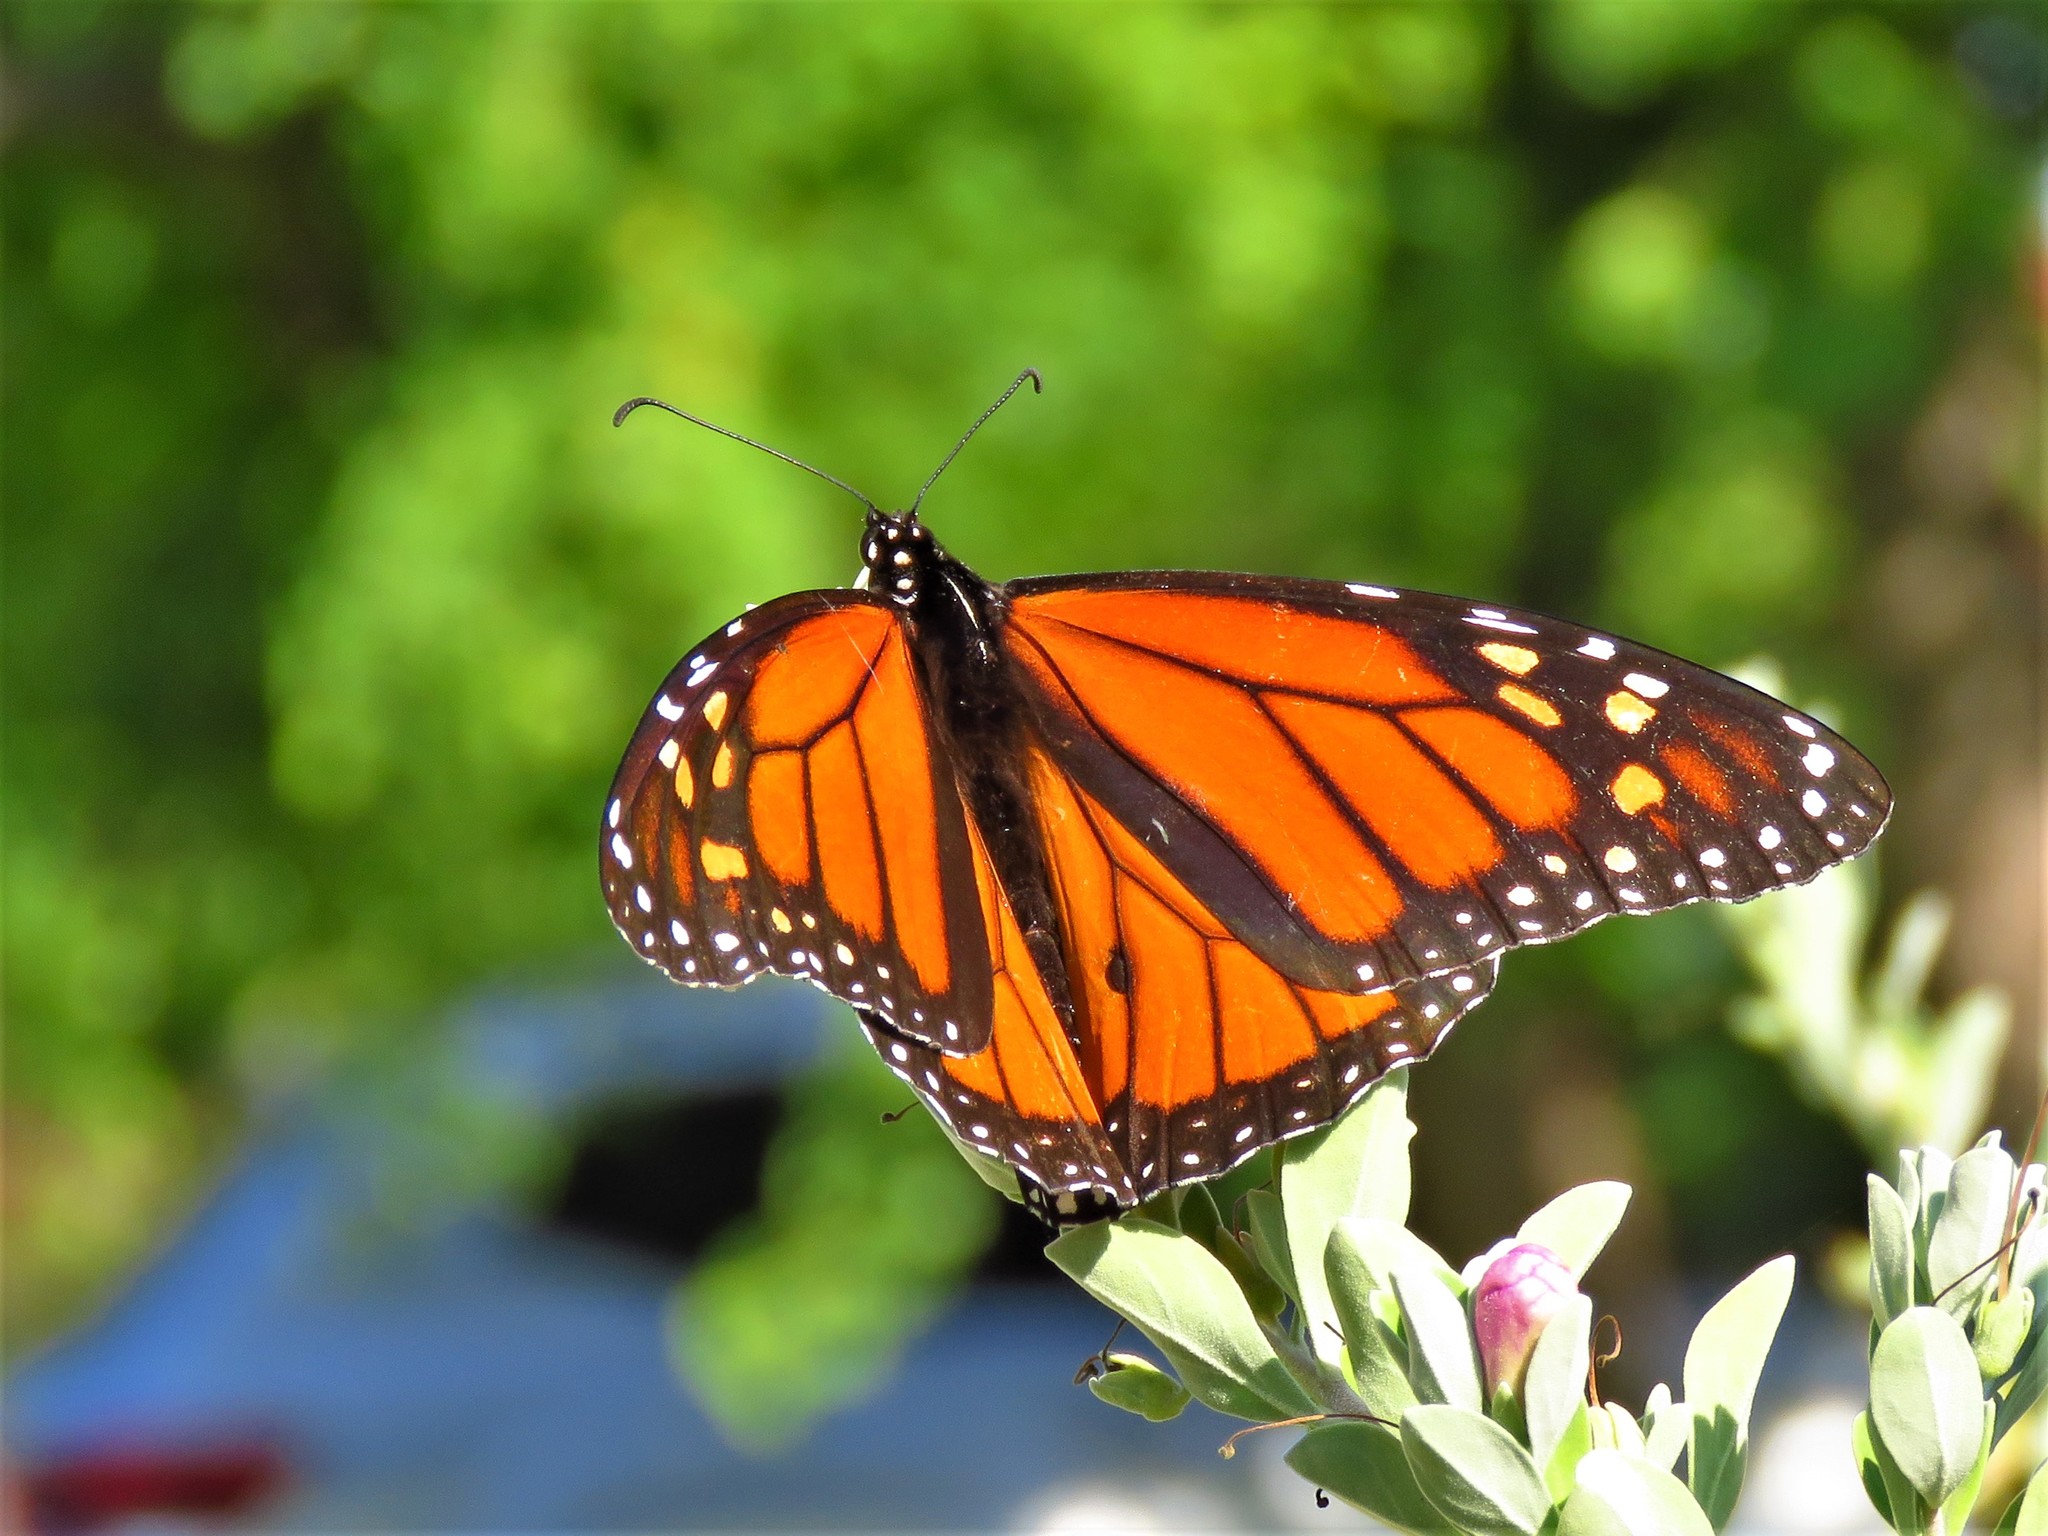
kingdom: Animalia
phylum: Arthropoda
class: Insecta
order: Lepidoptera
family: Nymphalidae
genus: Danaus
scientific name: Danaus plexippus
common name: Monarch
